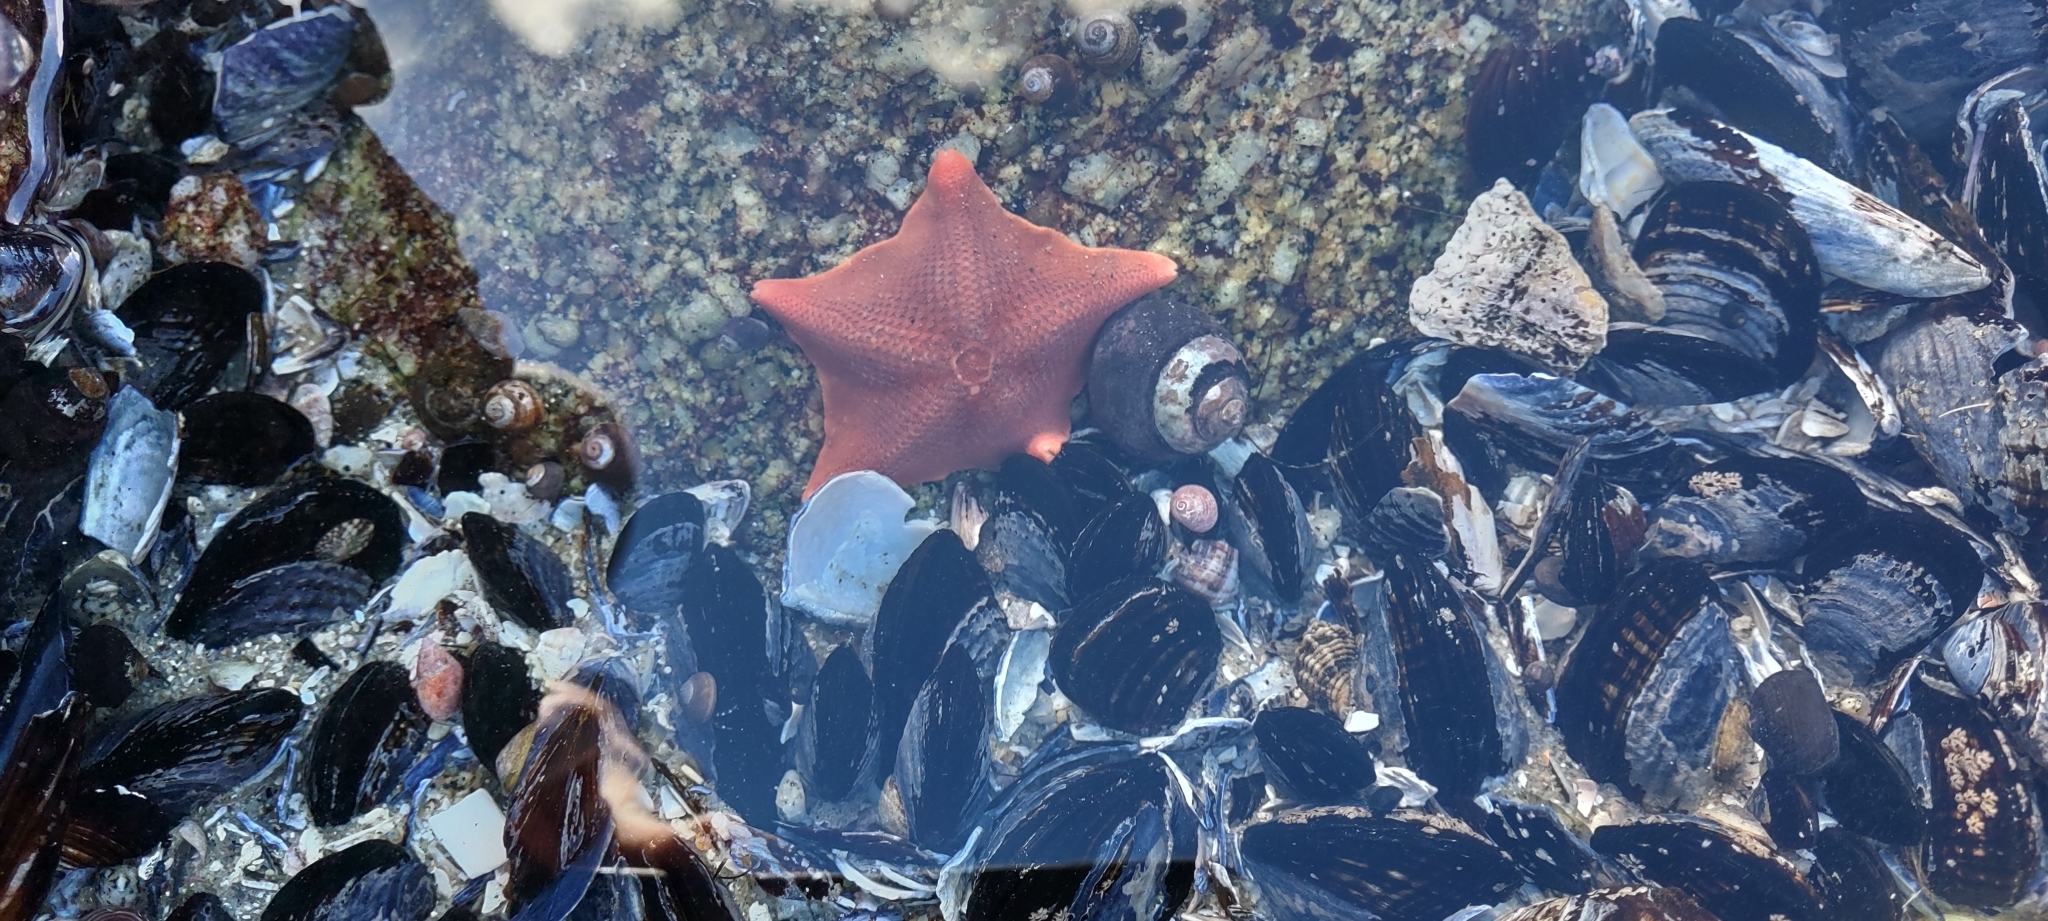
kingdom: Animalia
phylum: Echinodermata
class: Asteroidea
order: Valvatida
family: Asterinidae
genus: Patiria
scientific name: Patiria miniata
